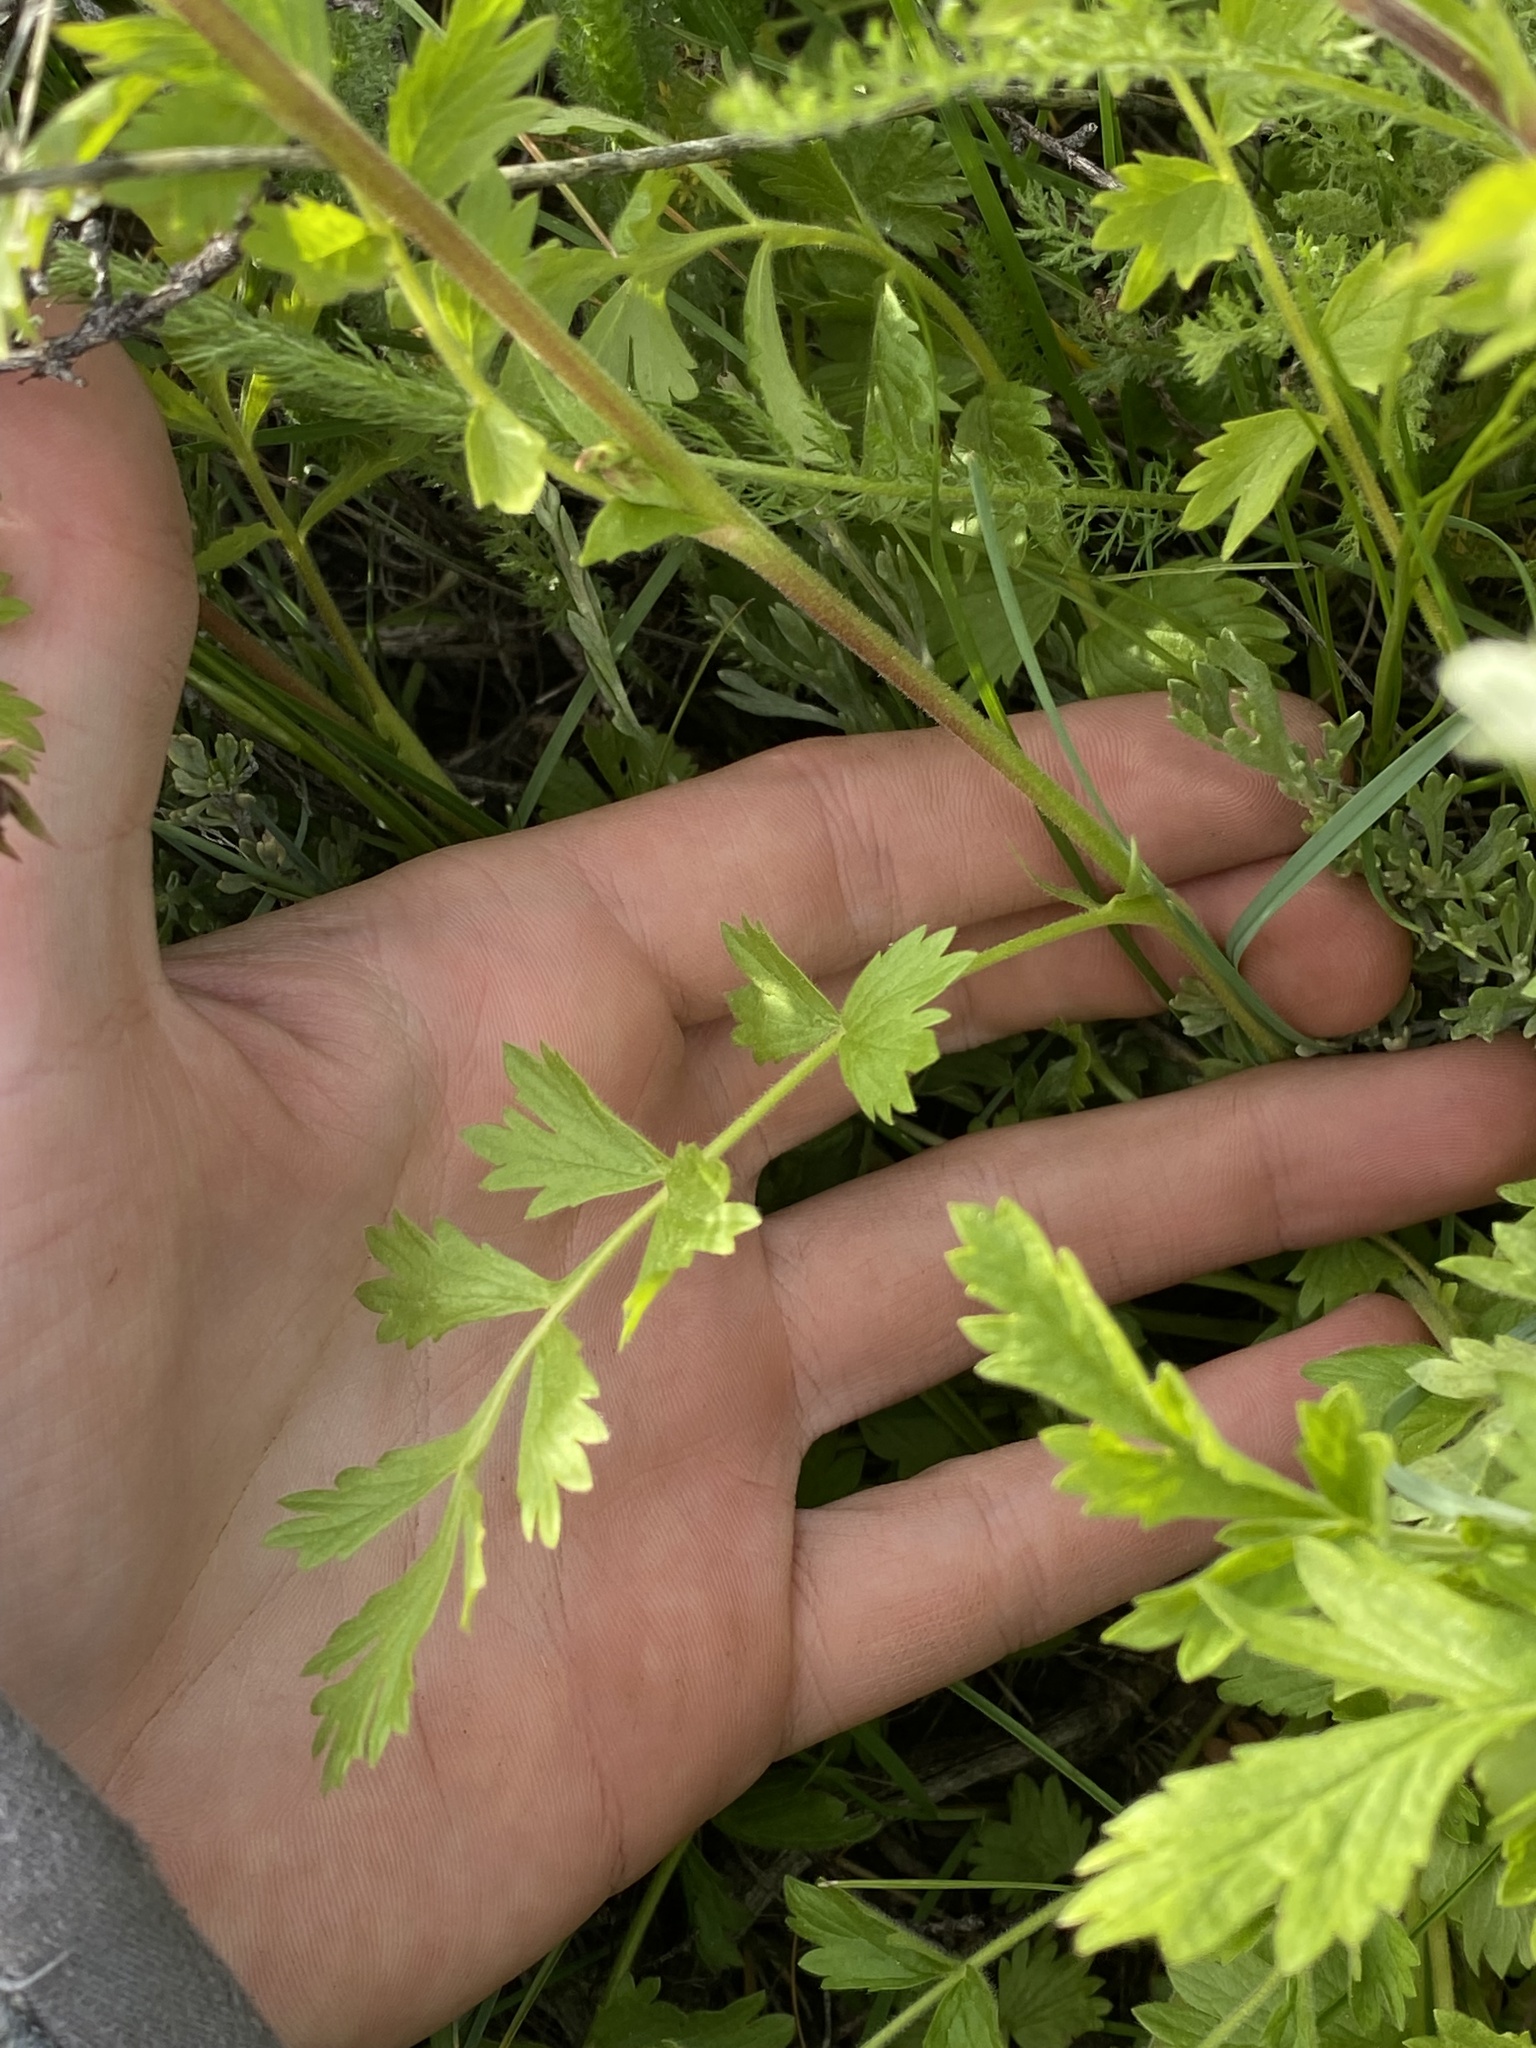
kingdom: Plantae
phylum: Tracheophyta
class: Magnoliopsida
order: Rosales
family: Rosaceae
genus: Potentilla
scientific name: Potentilla douglasii
